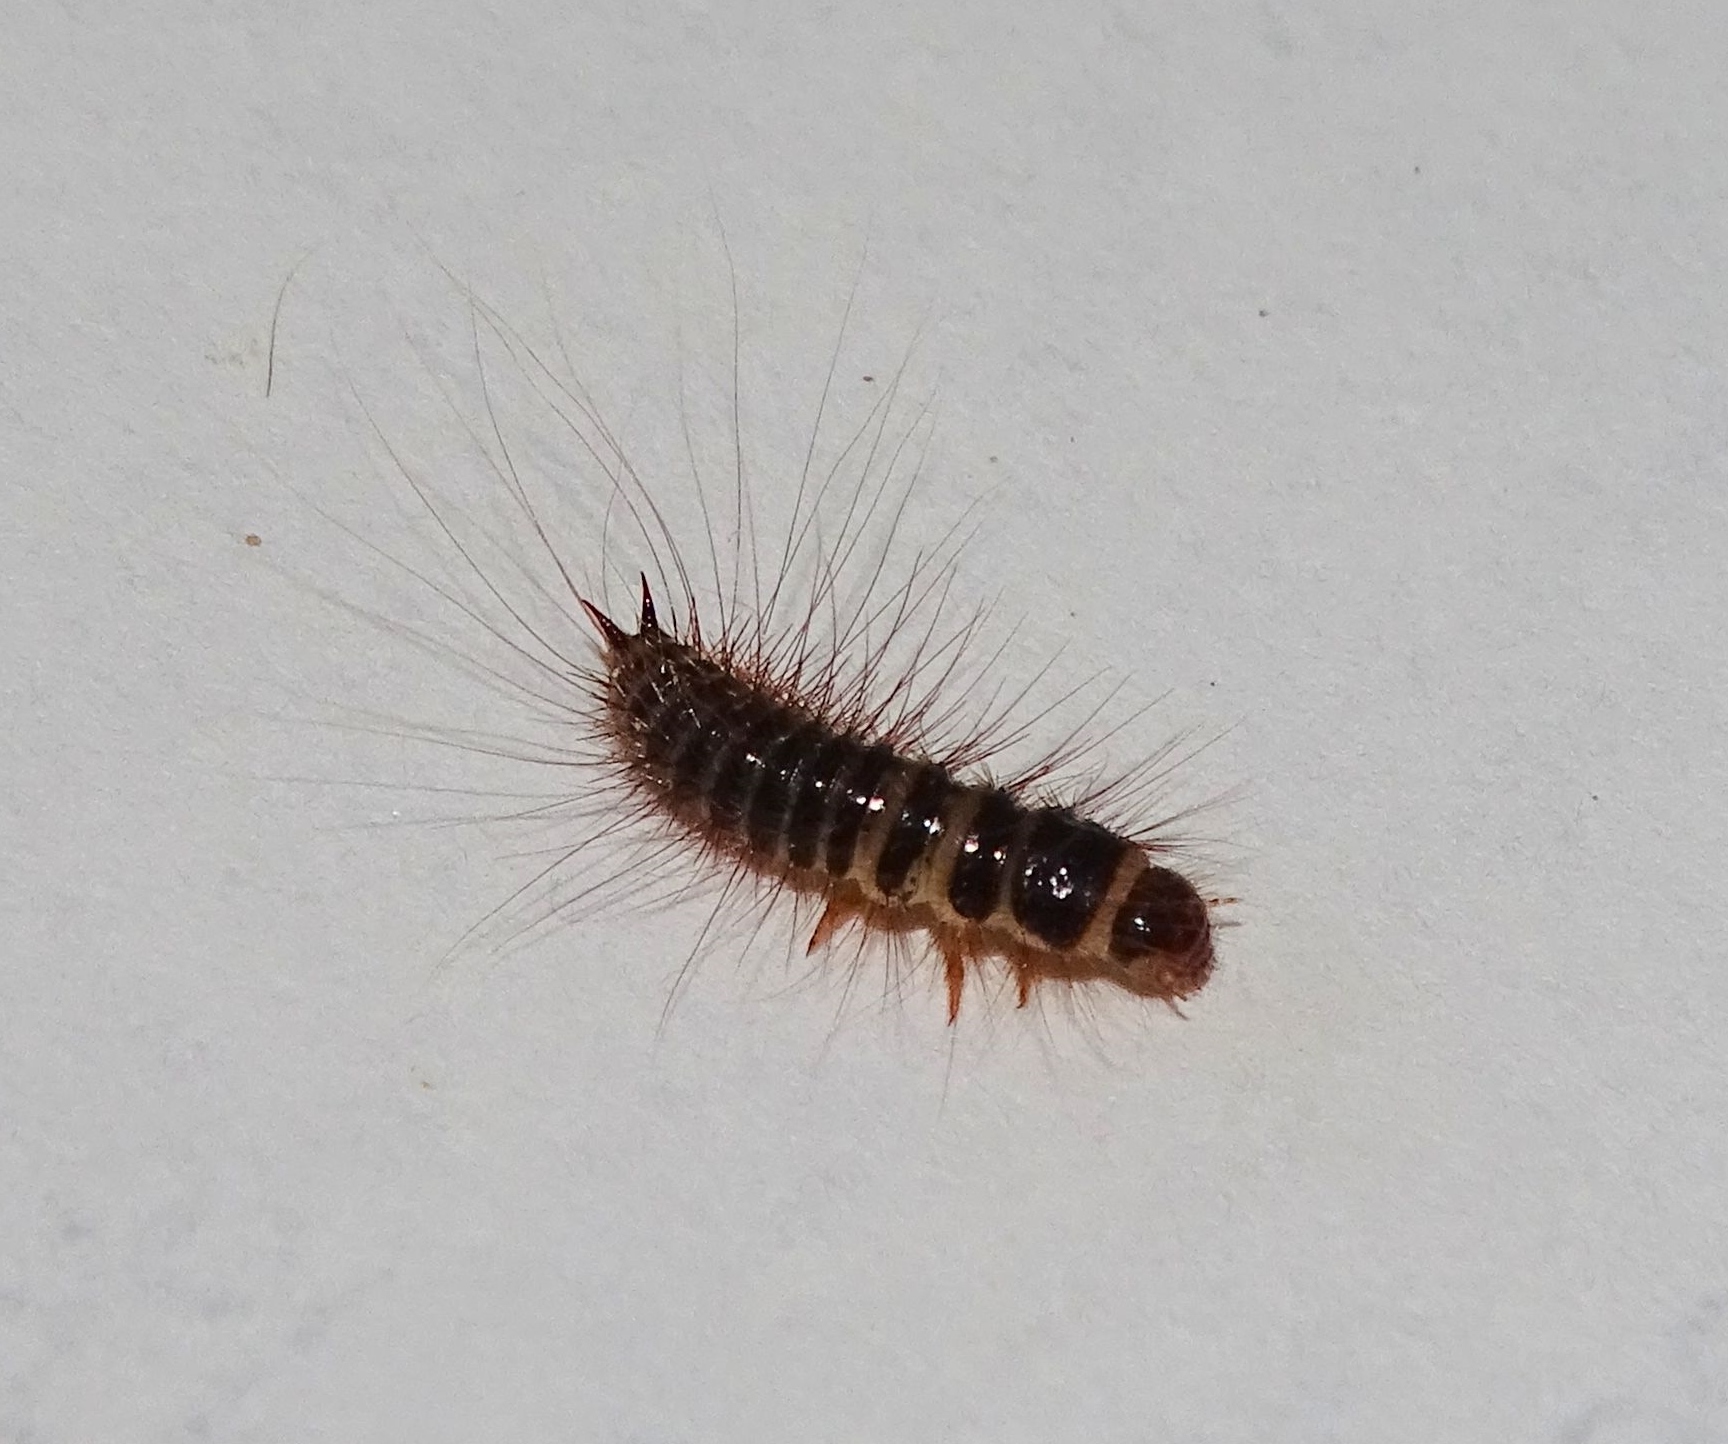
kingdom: Animalia
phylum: Arthropoda
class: Insecta
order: Coleoptera
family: Dermestidae
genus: Dermestes
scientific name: Dermestes lardarius
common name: Larder beetle
